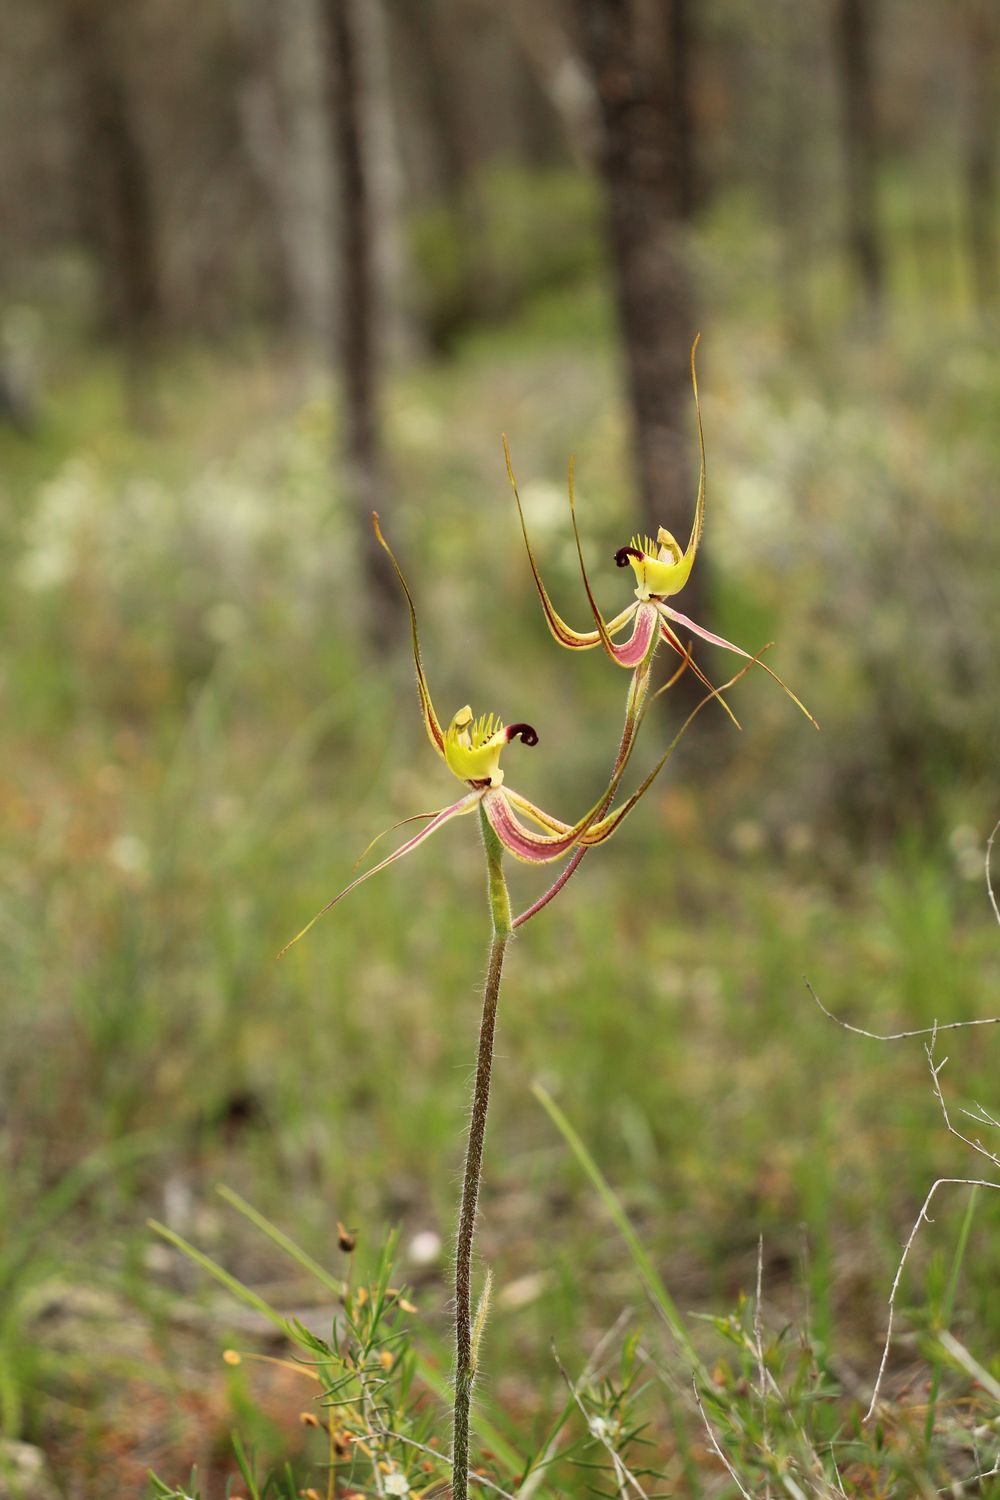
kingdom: Plantae
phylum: Tracheophyta
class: Liliopsida
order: Asparagales
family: Orchidaceae
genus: Caladenia
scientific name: Caladenia falcata
